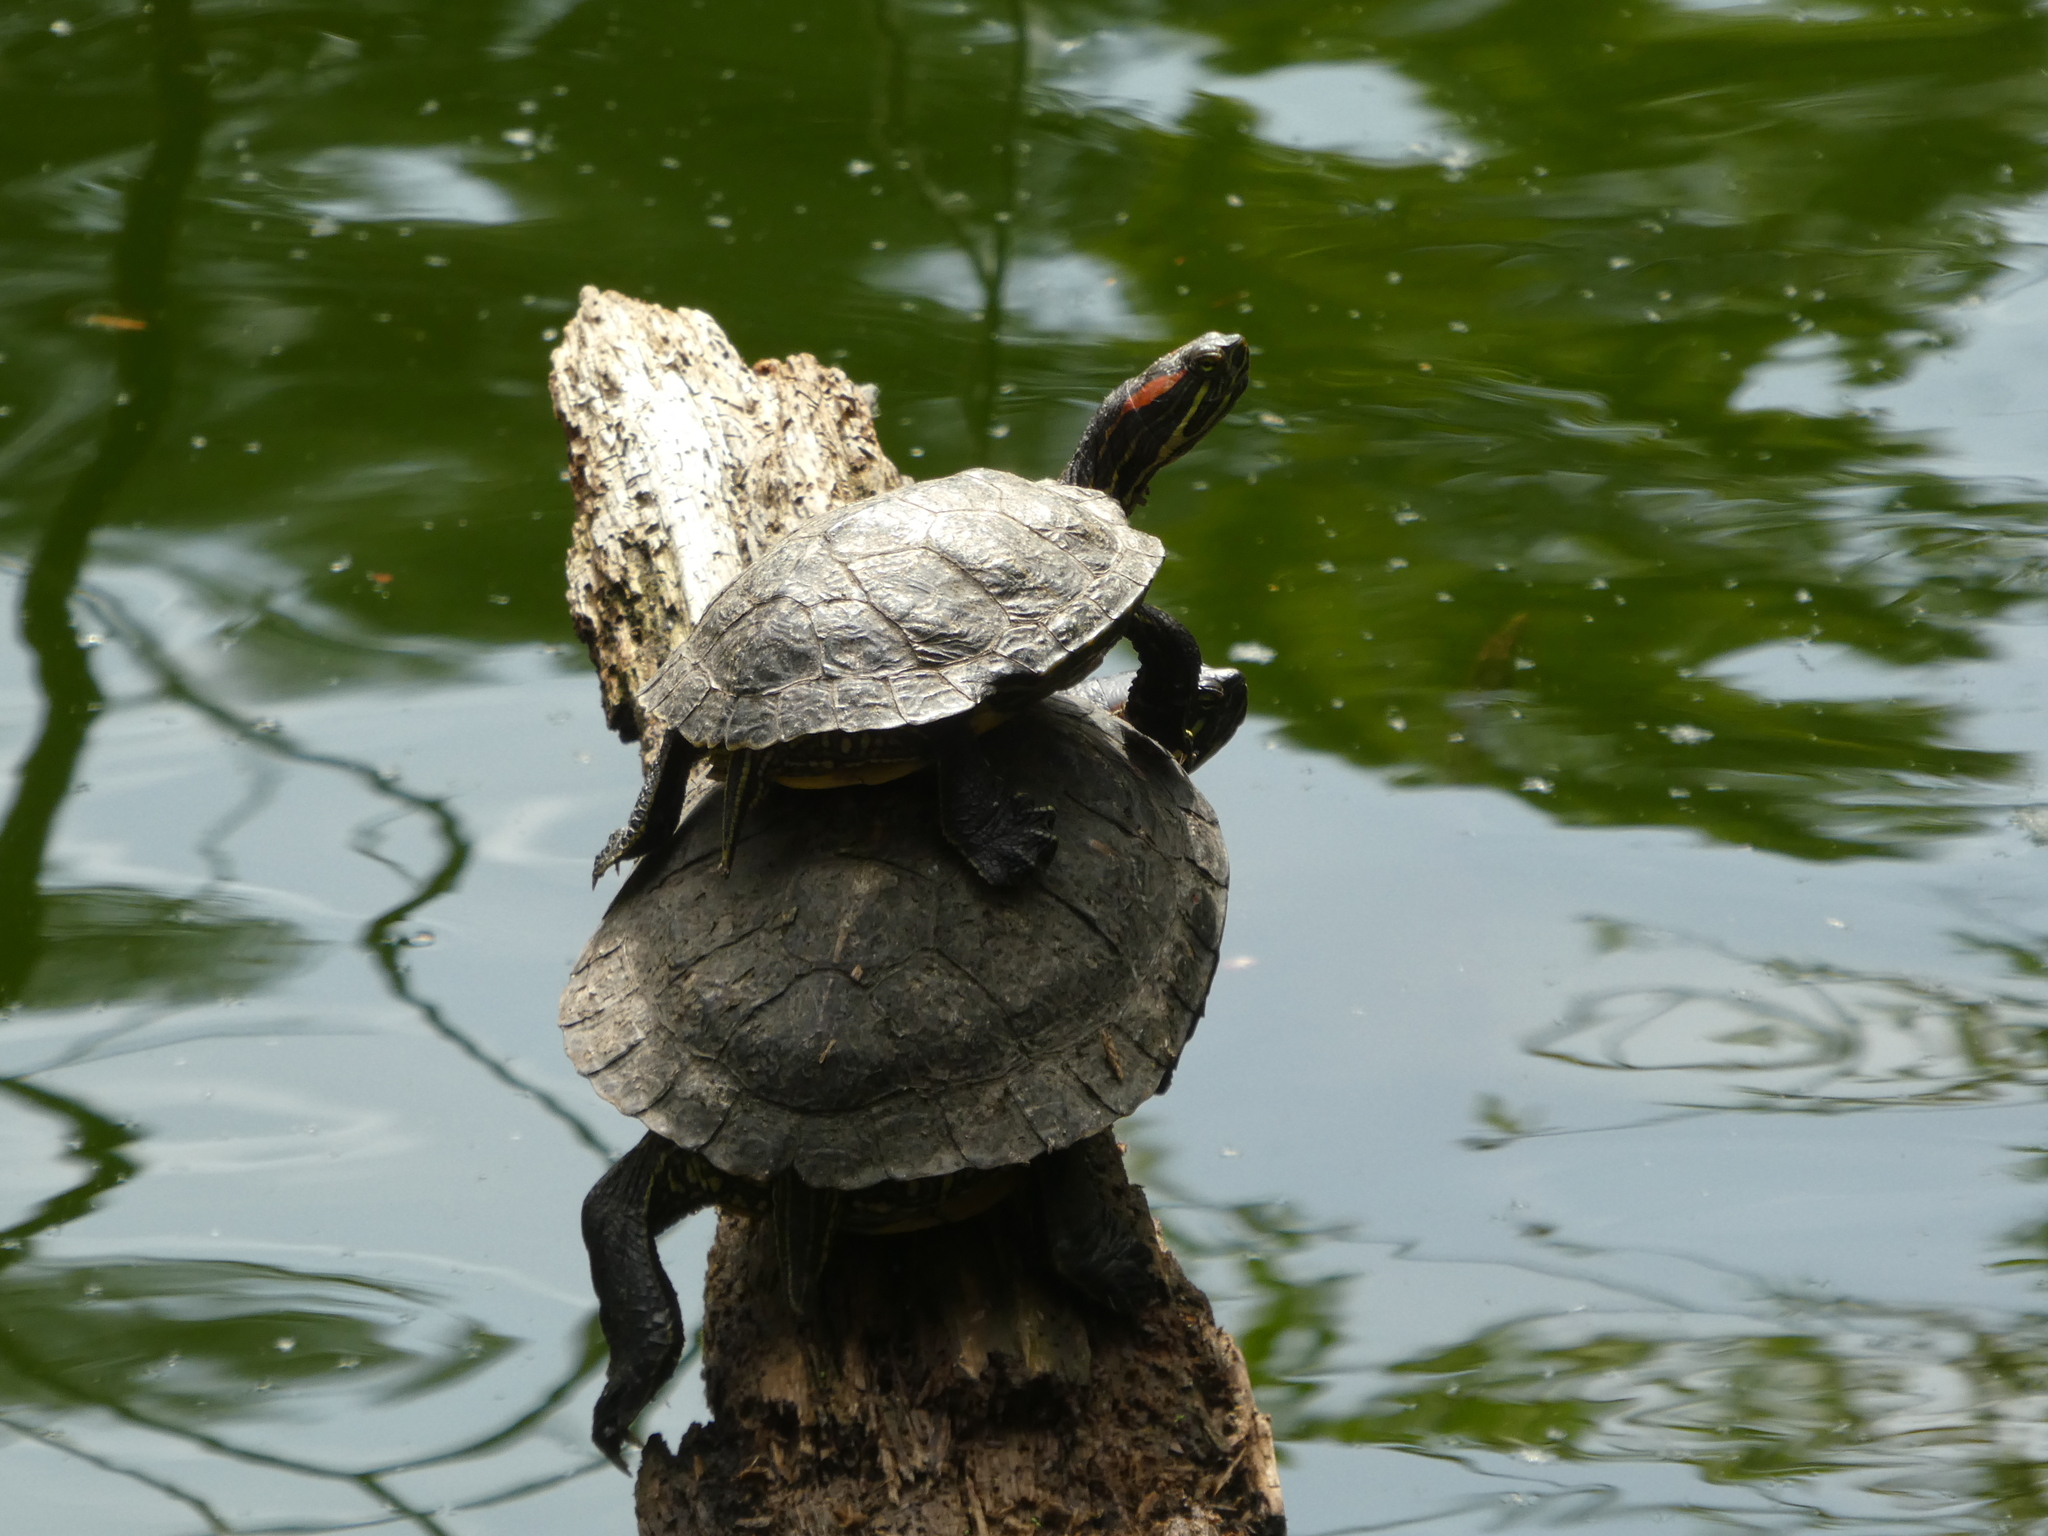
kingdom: Animalia
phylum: Chordata
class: Testudines
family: Emydidae
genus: Trachemys
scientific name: Trachemys scripta
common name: Slider
